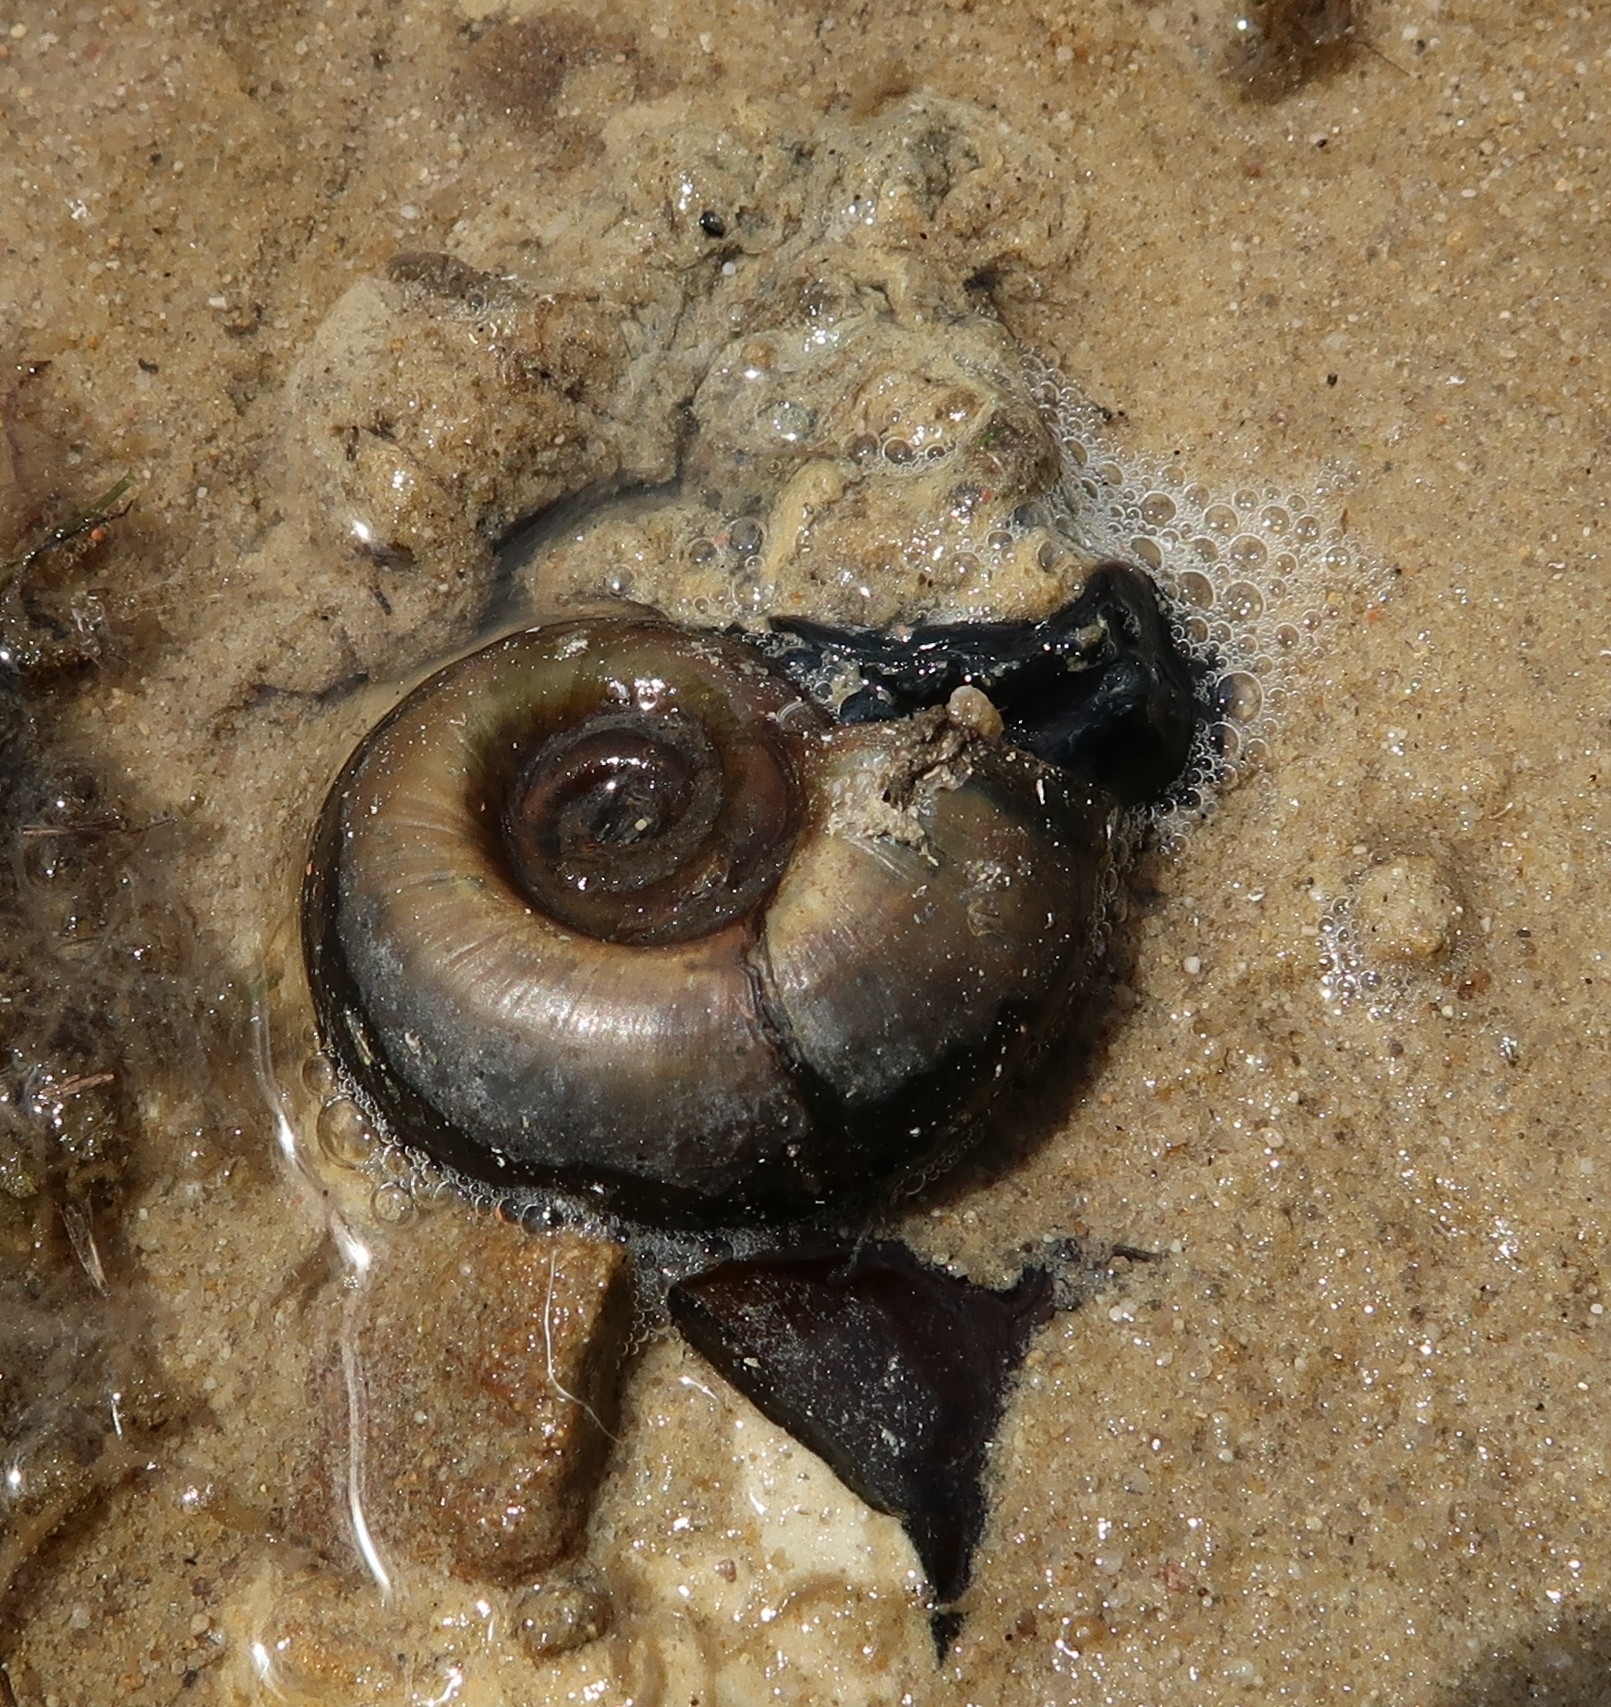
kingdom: Animalia
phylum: Mollusca
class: Gastropoda
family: Planorbidae
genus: Planorbarius
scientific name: Planorbarius corneus
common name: Great ramshorn
